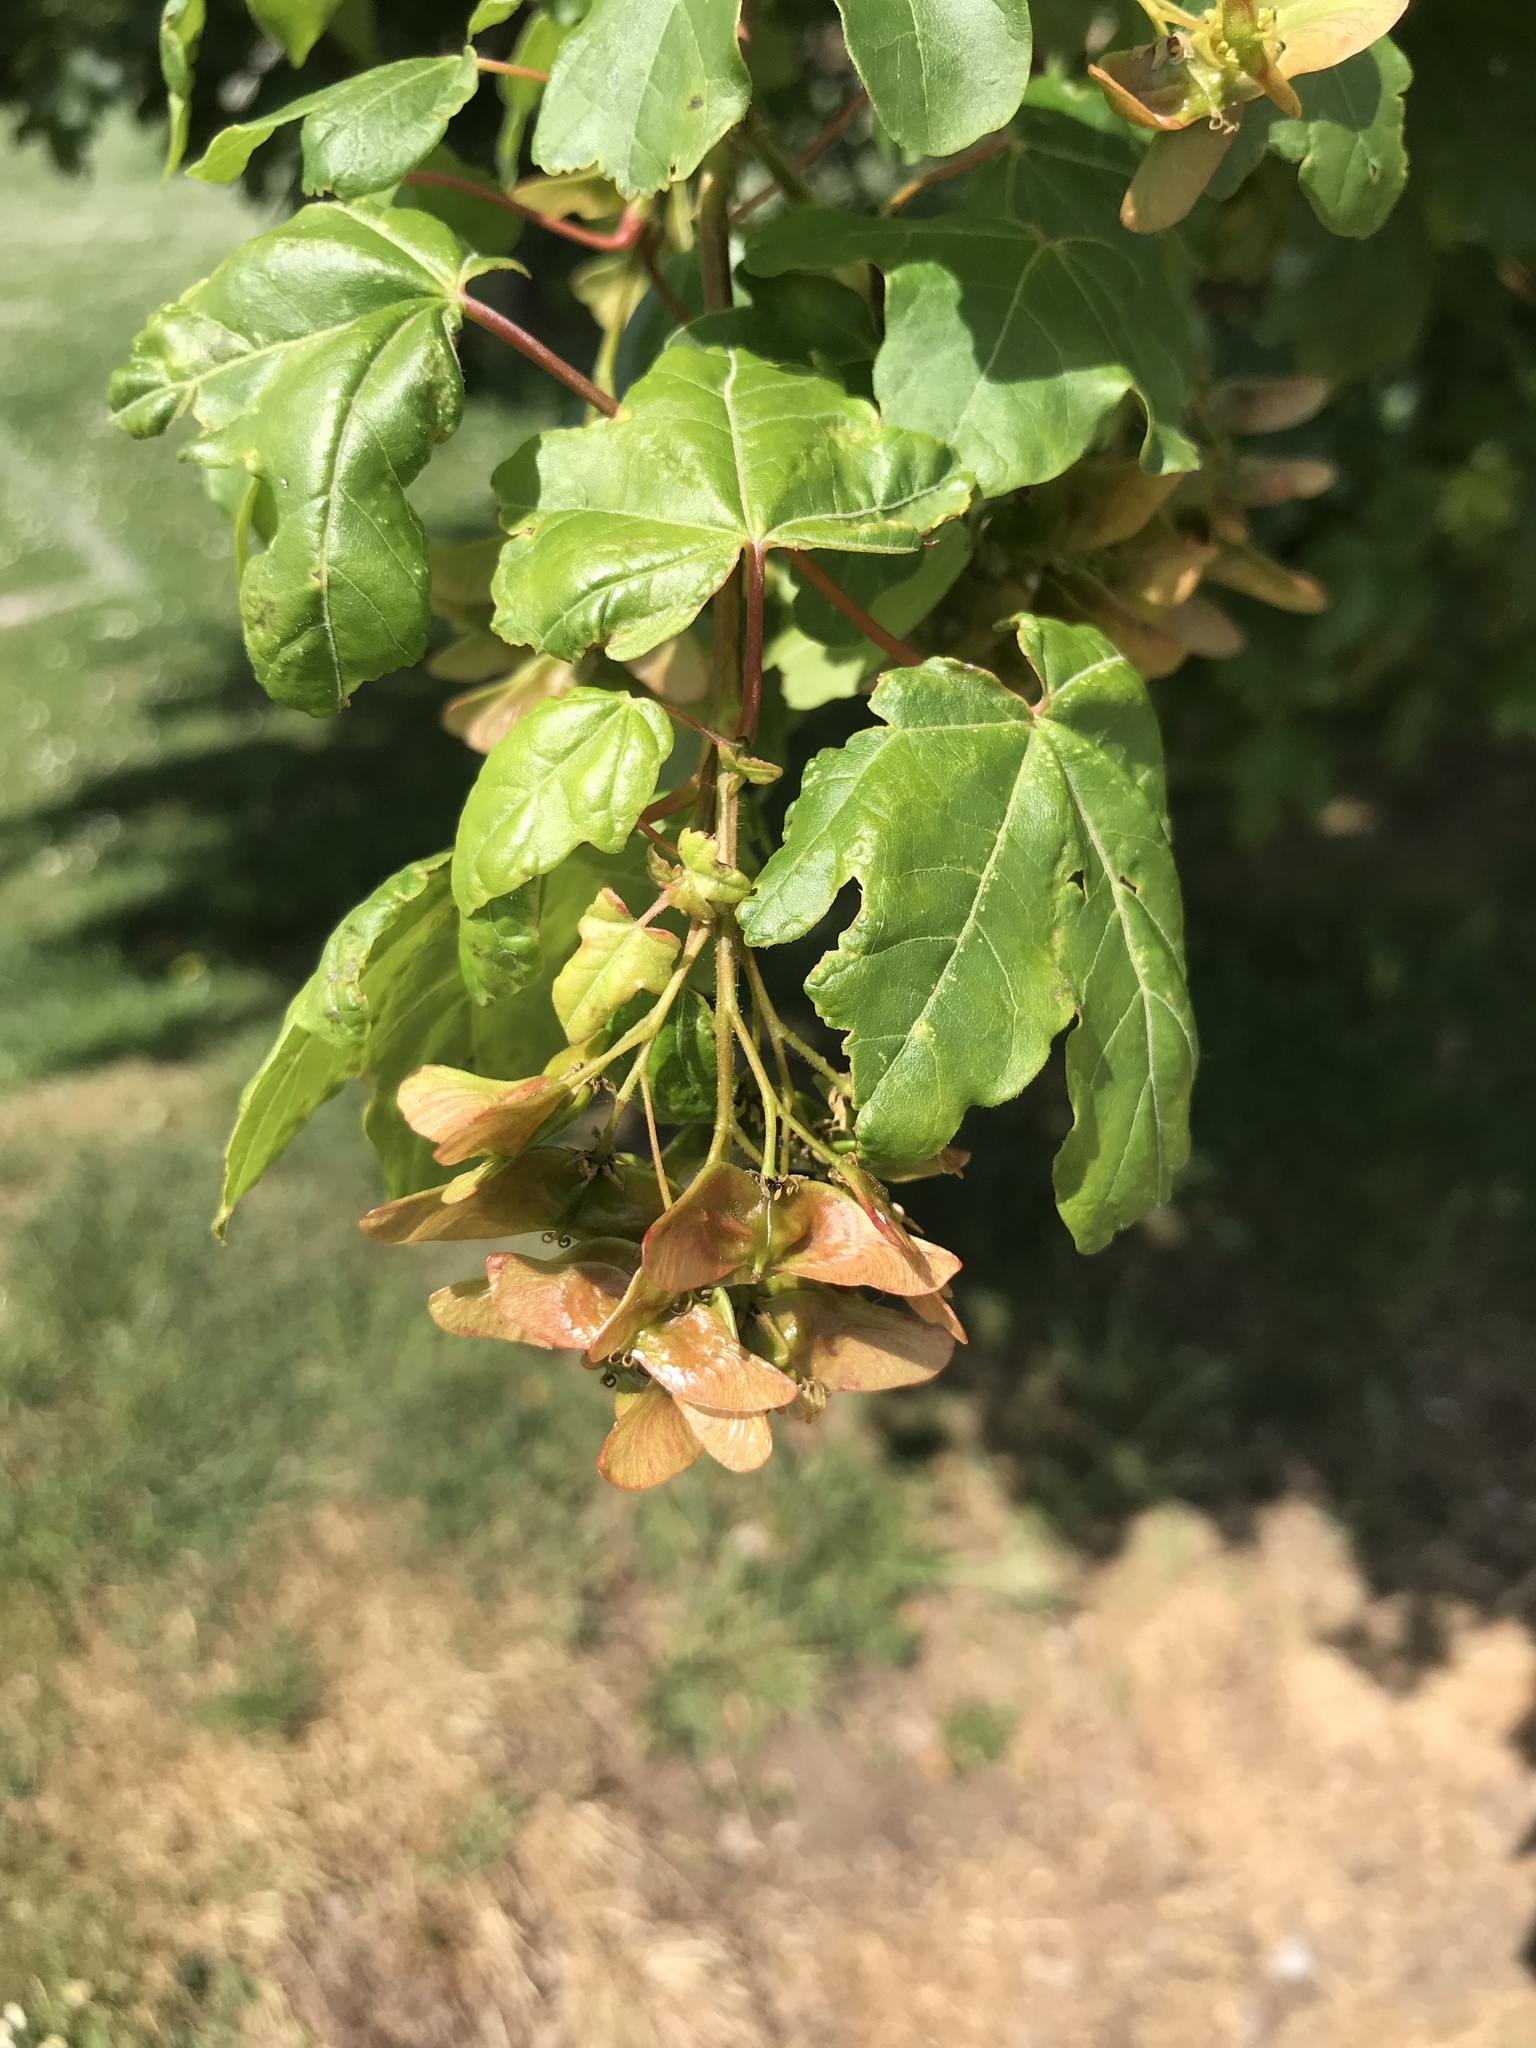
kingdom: Plantae
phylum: Tracheophyta
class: Magnoliopsida
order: Sapindales
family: Sapindaceae
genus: Acer
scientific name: Acer campestre
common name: Field maple
